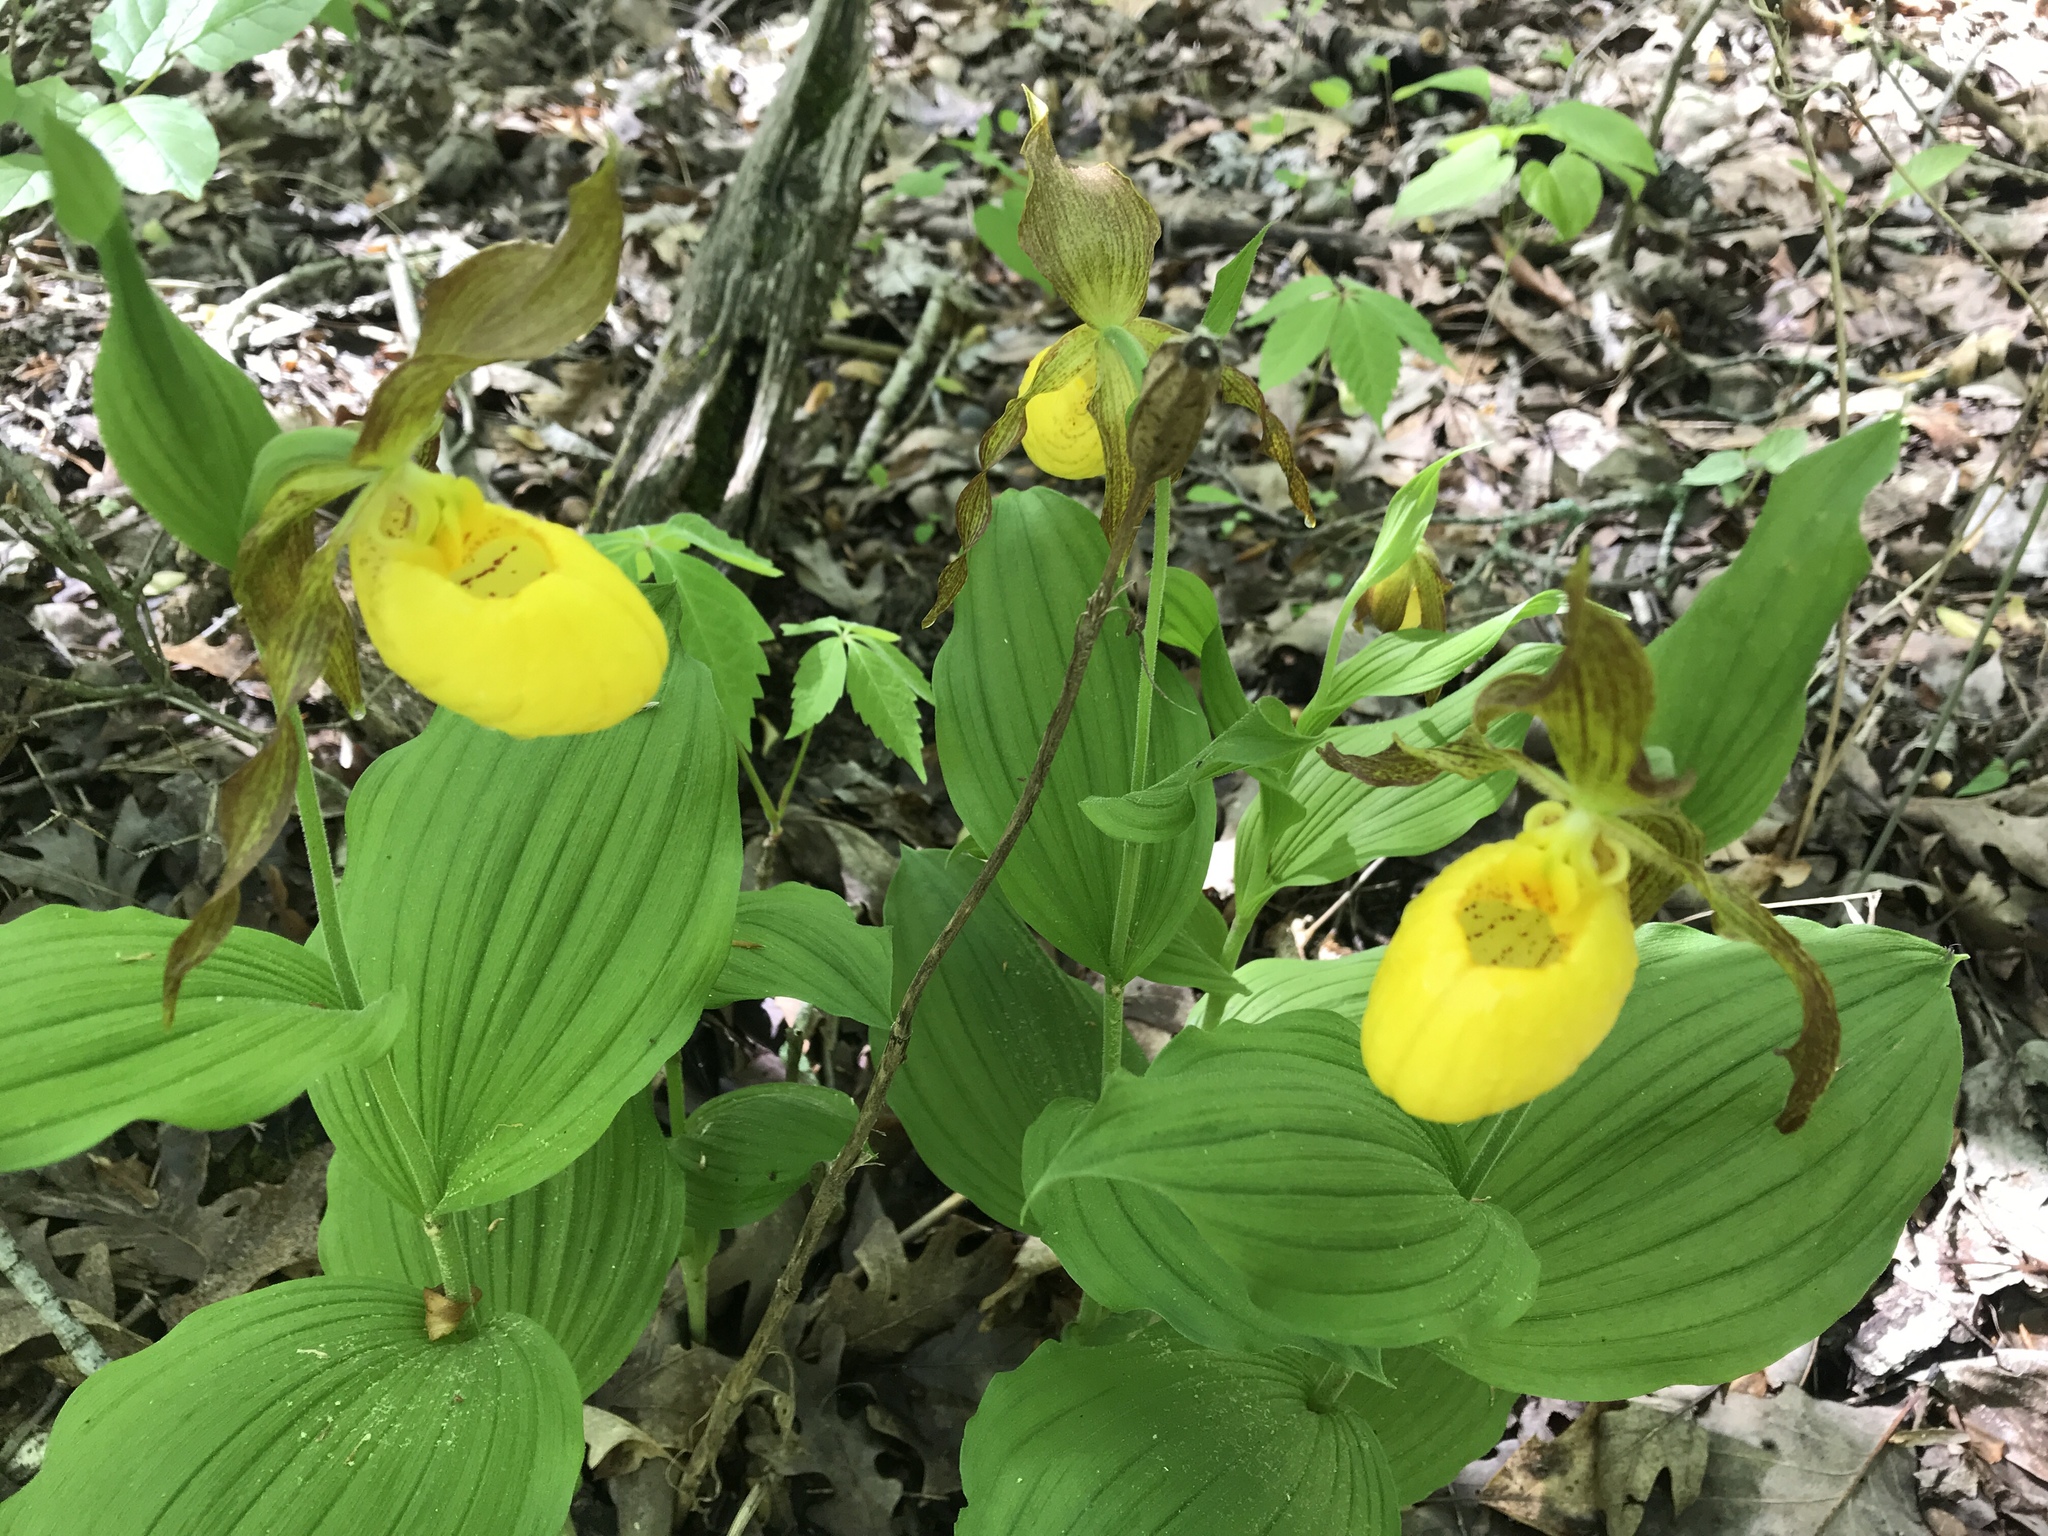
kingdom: Plantae
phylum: Tracheophyta
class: Liliopsida
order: Asparagales
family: Orchidaceae
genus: Cypripedium
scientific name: Cypripedium parviflorum
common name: American yellow lady's-slipper
